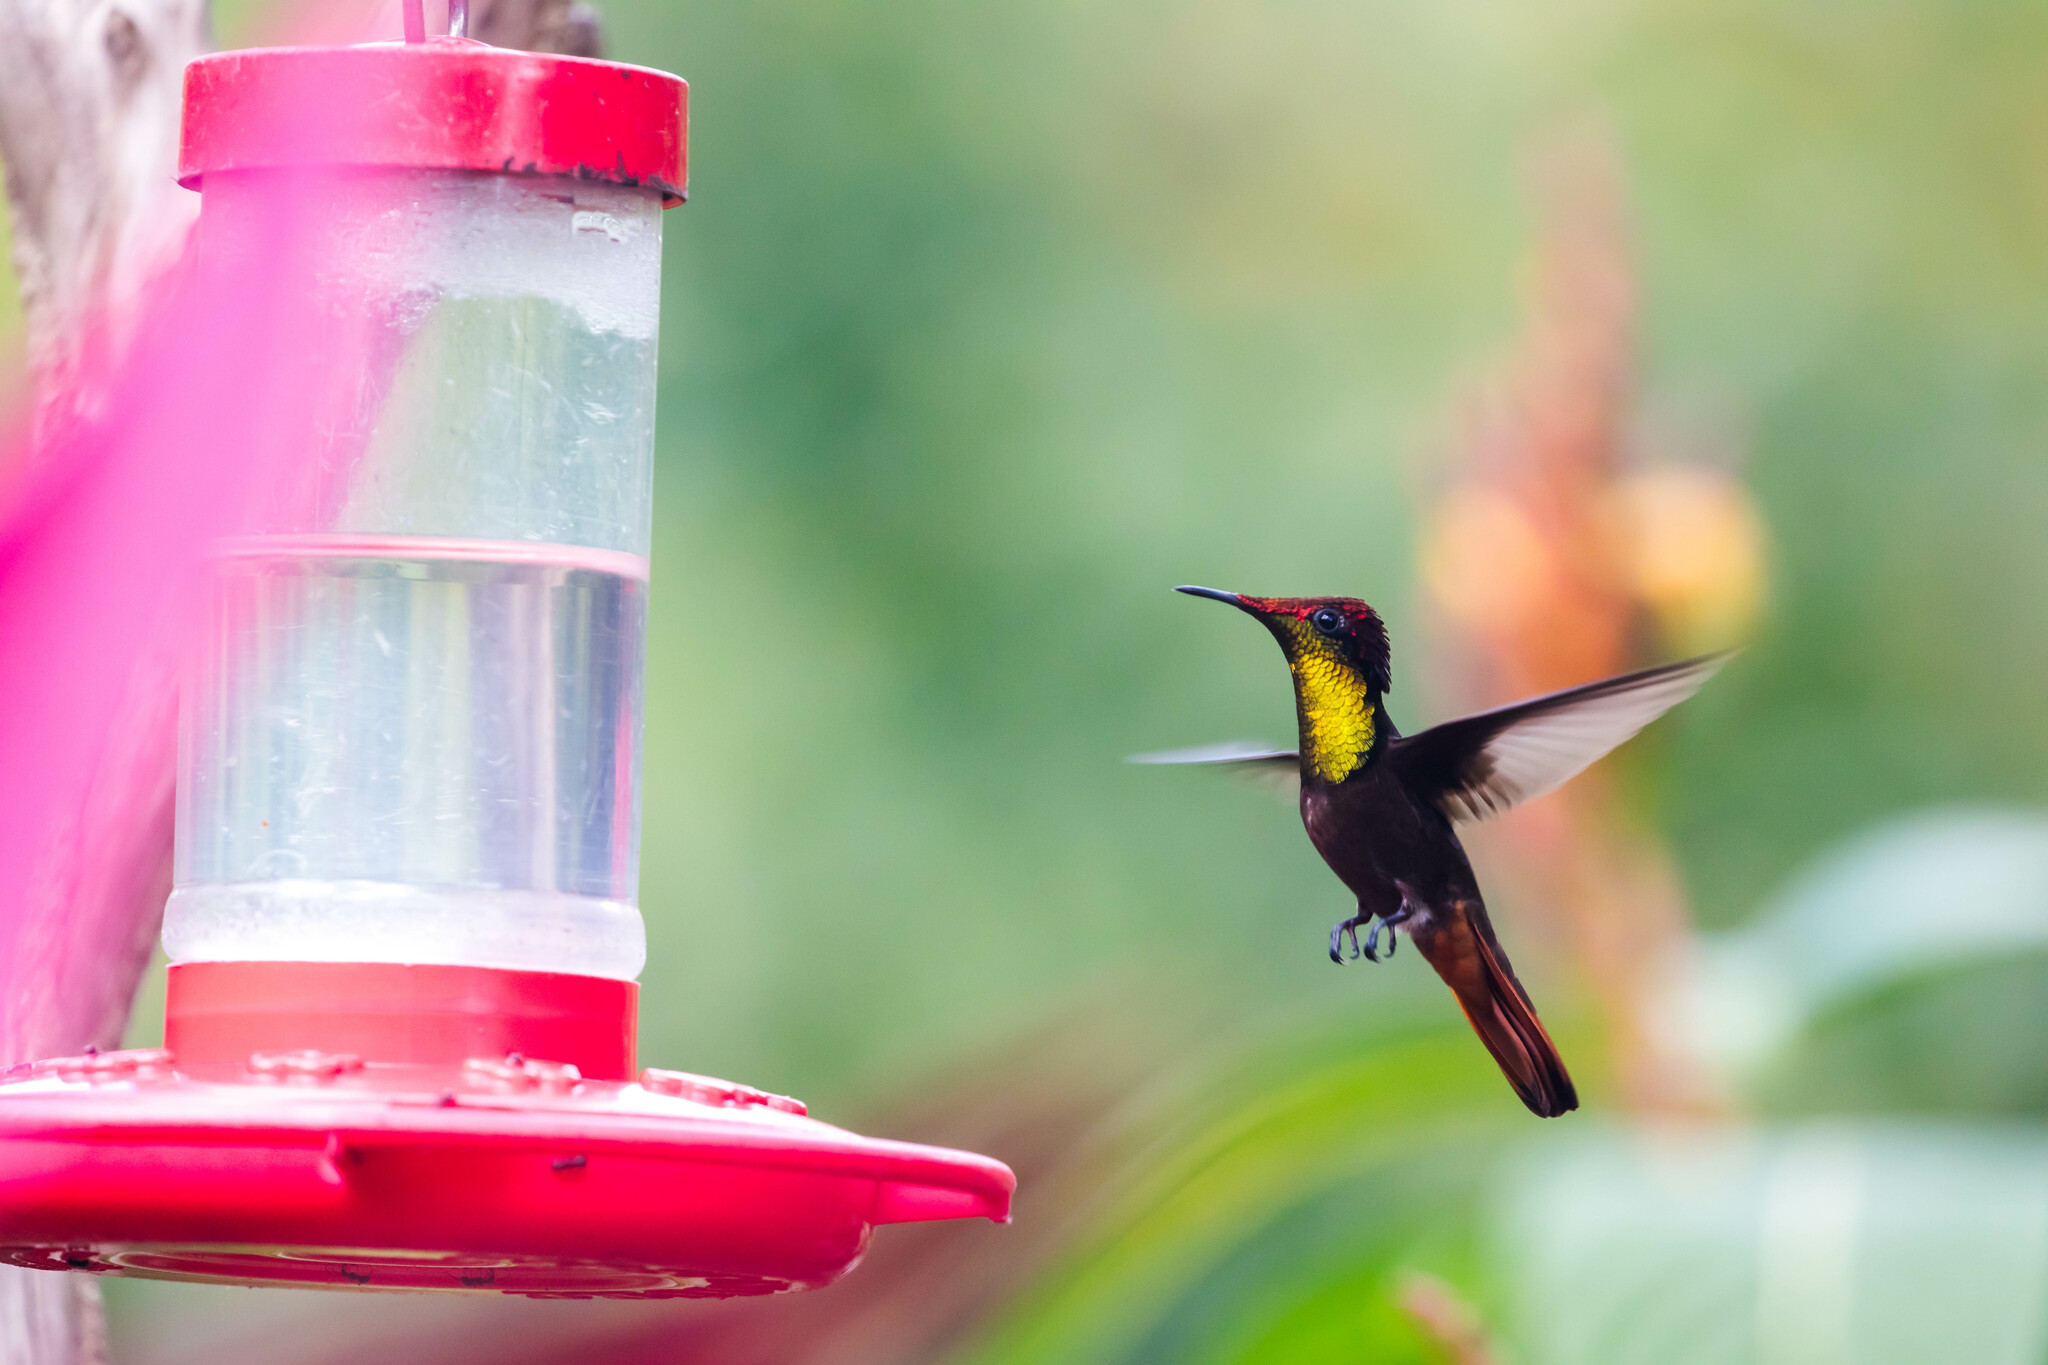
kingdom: Animalia
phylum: Chordata
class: Aves
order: Apodiformes
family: Trochilidae
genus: Chrysolampis
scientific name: Chrysolampis mosquitus
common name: Ruby-topaz hummingbird
